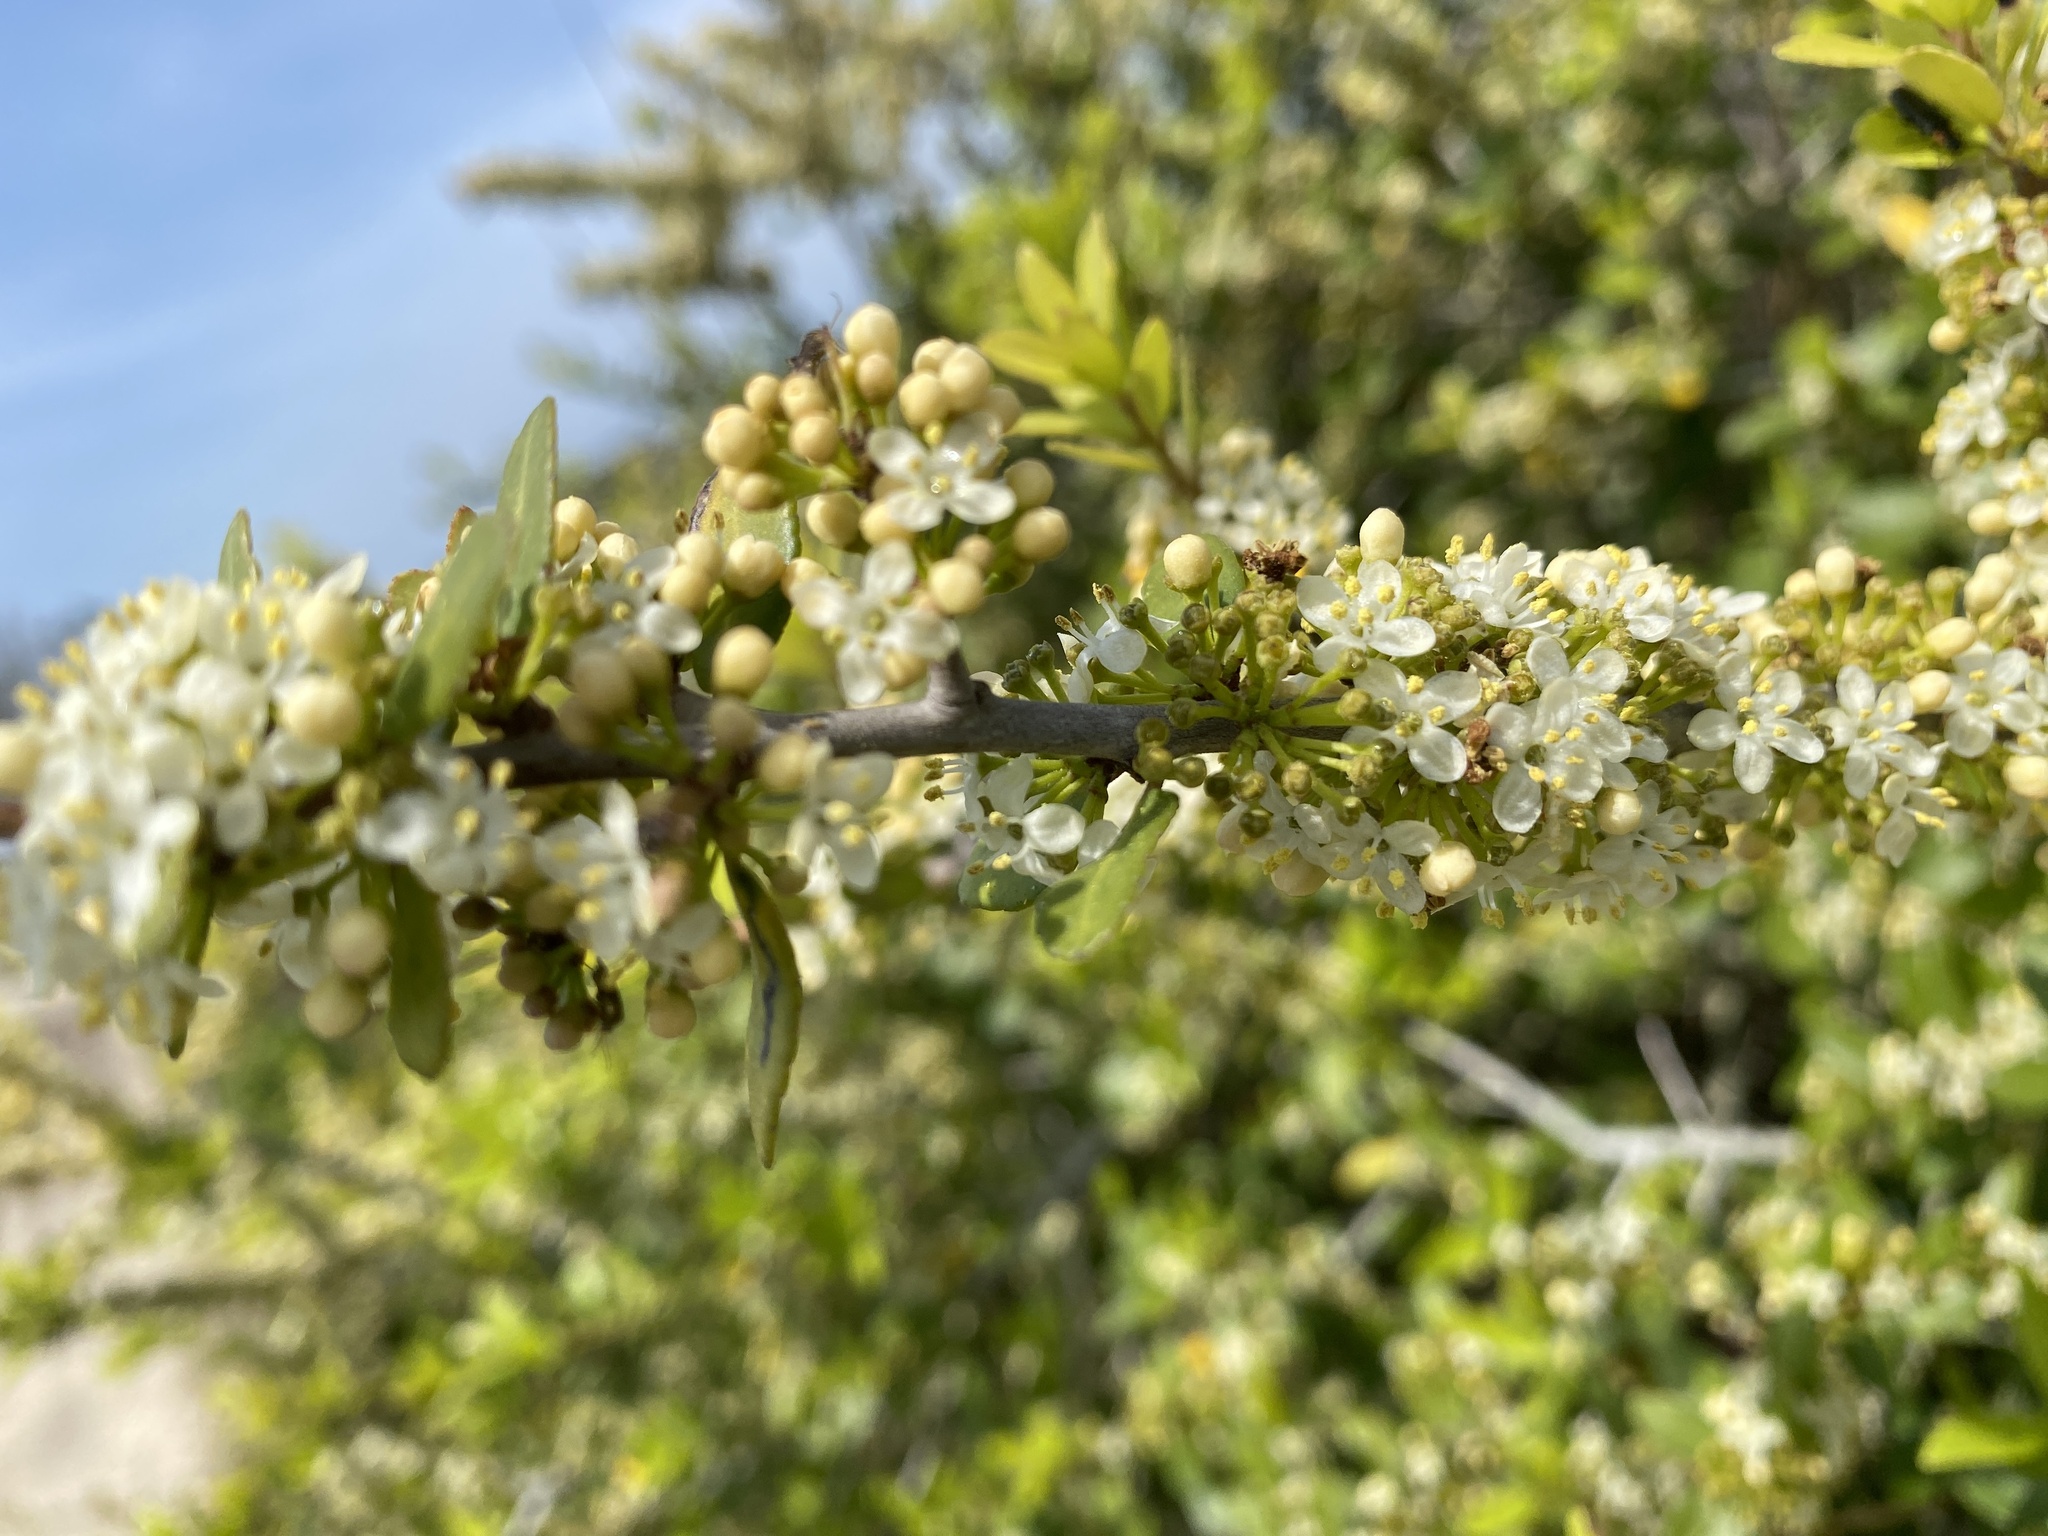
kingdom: Plantae
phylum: Tracheophyta
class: Magnoliopsida
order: Aquifoliales
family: Aquifoliaceae
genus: Ilex
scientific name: Ilex vomitoria
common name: Yaupon holly
